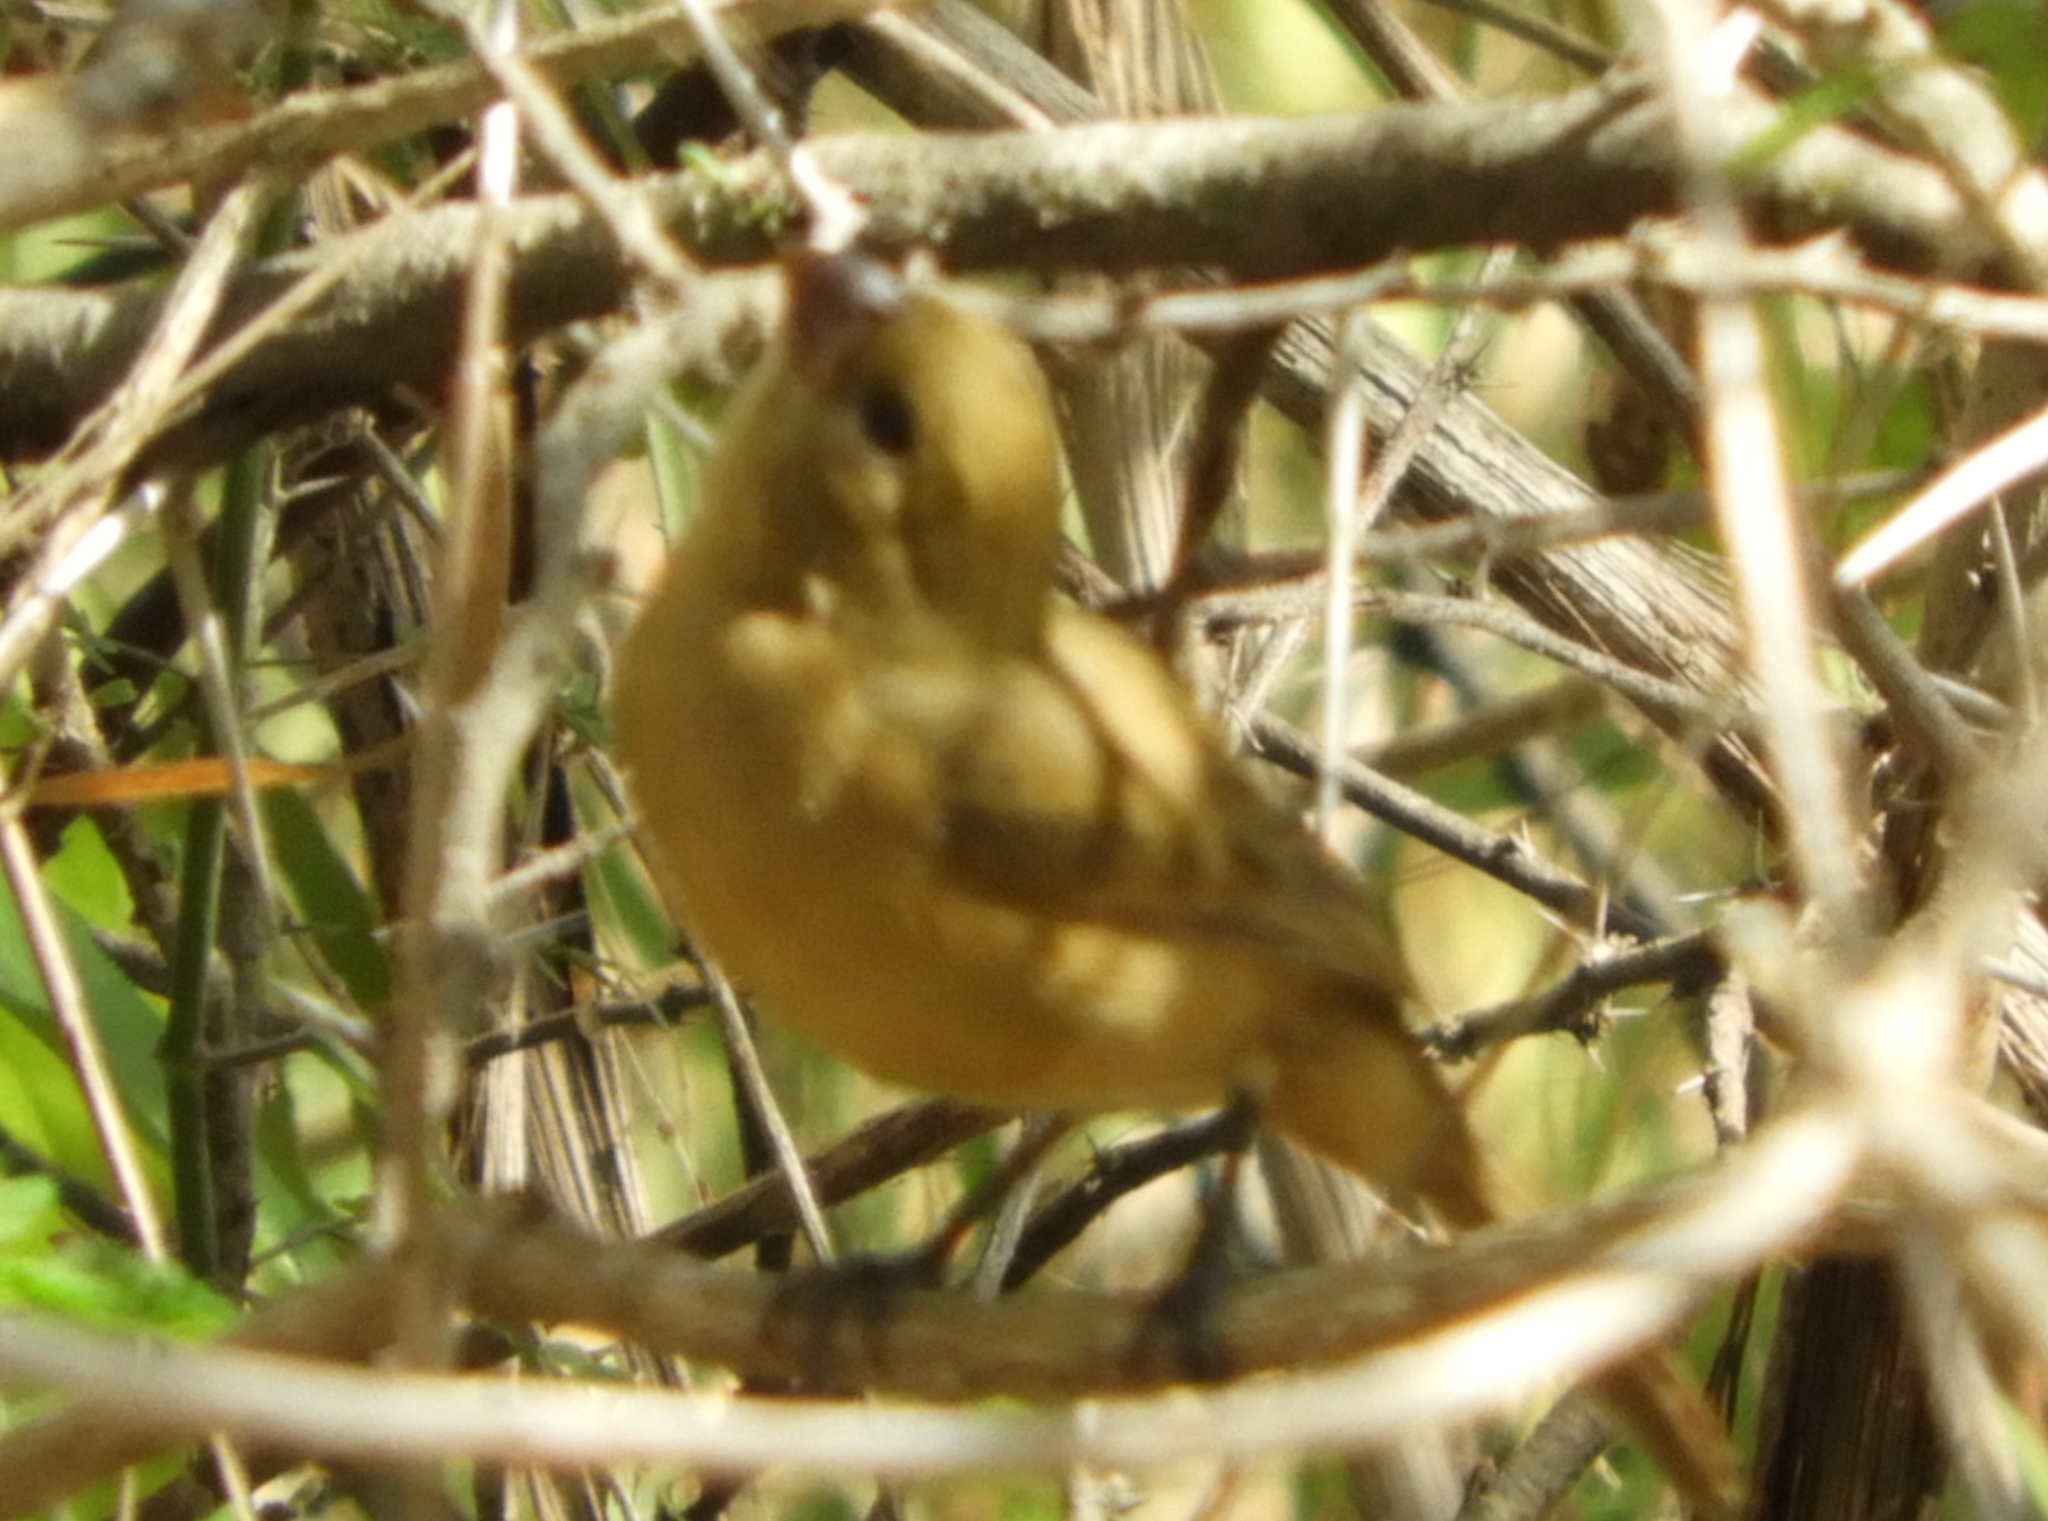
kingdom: Animalia
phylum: Chordata
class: Aves
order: Passeriformes
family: Thraupidae
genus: Sporophila
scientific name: Sporophila torqueola
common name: White-collared seedeater
